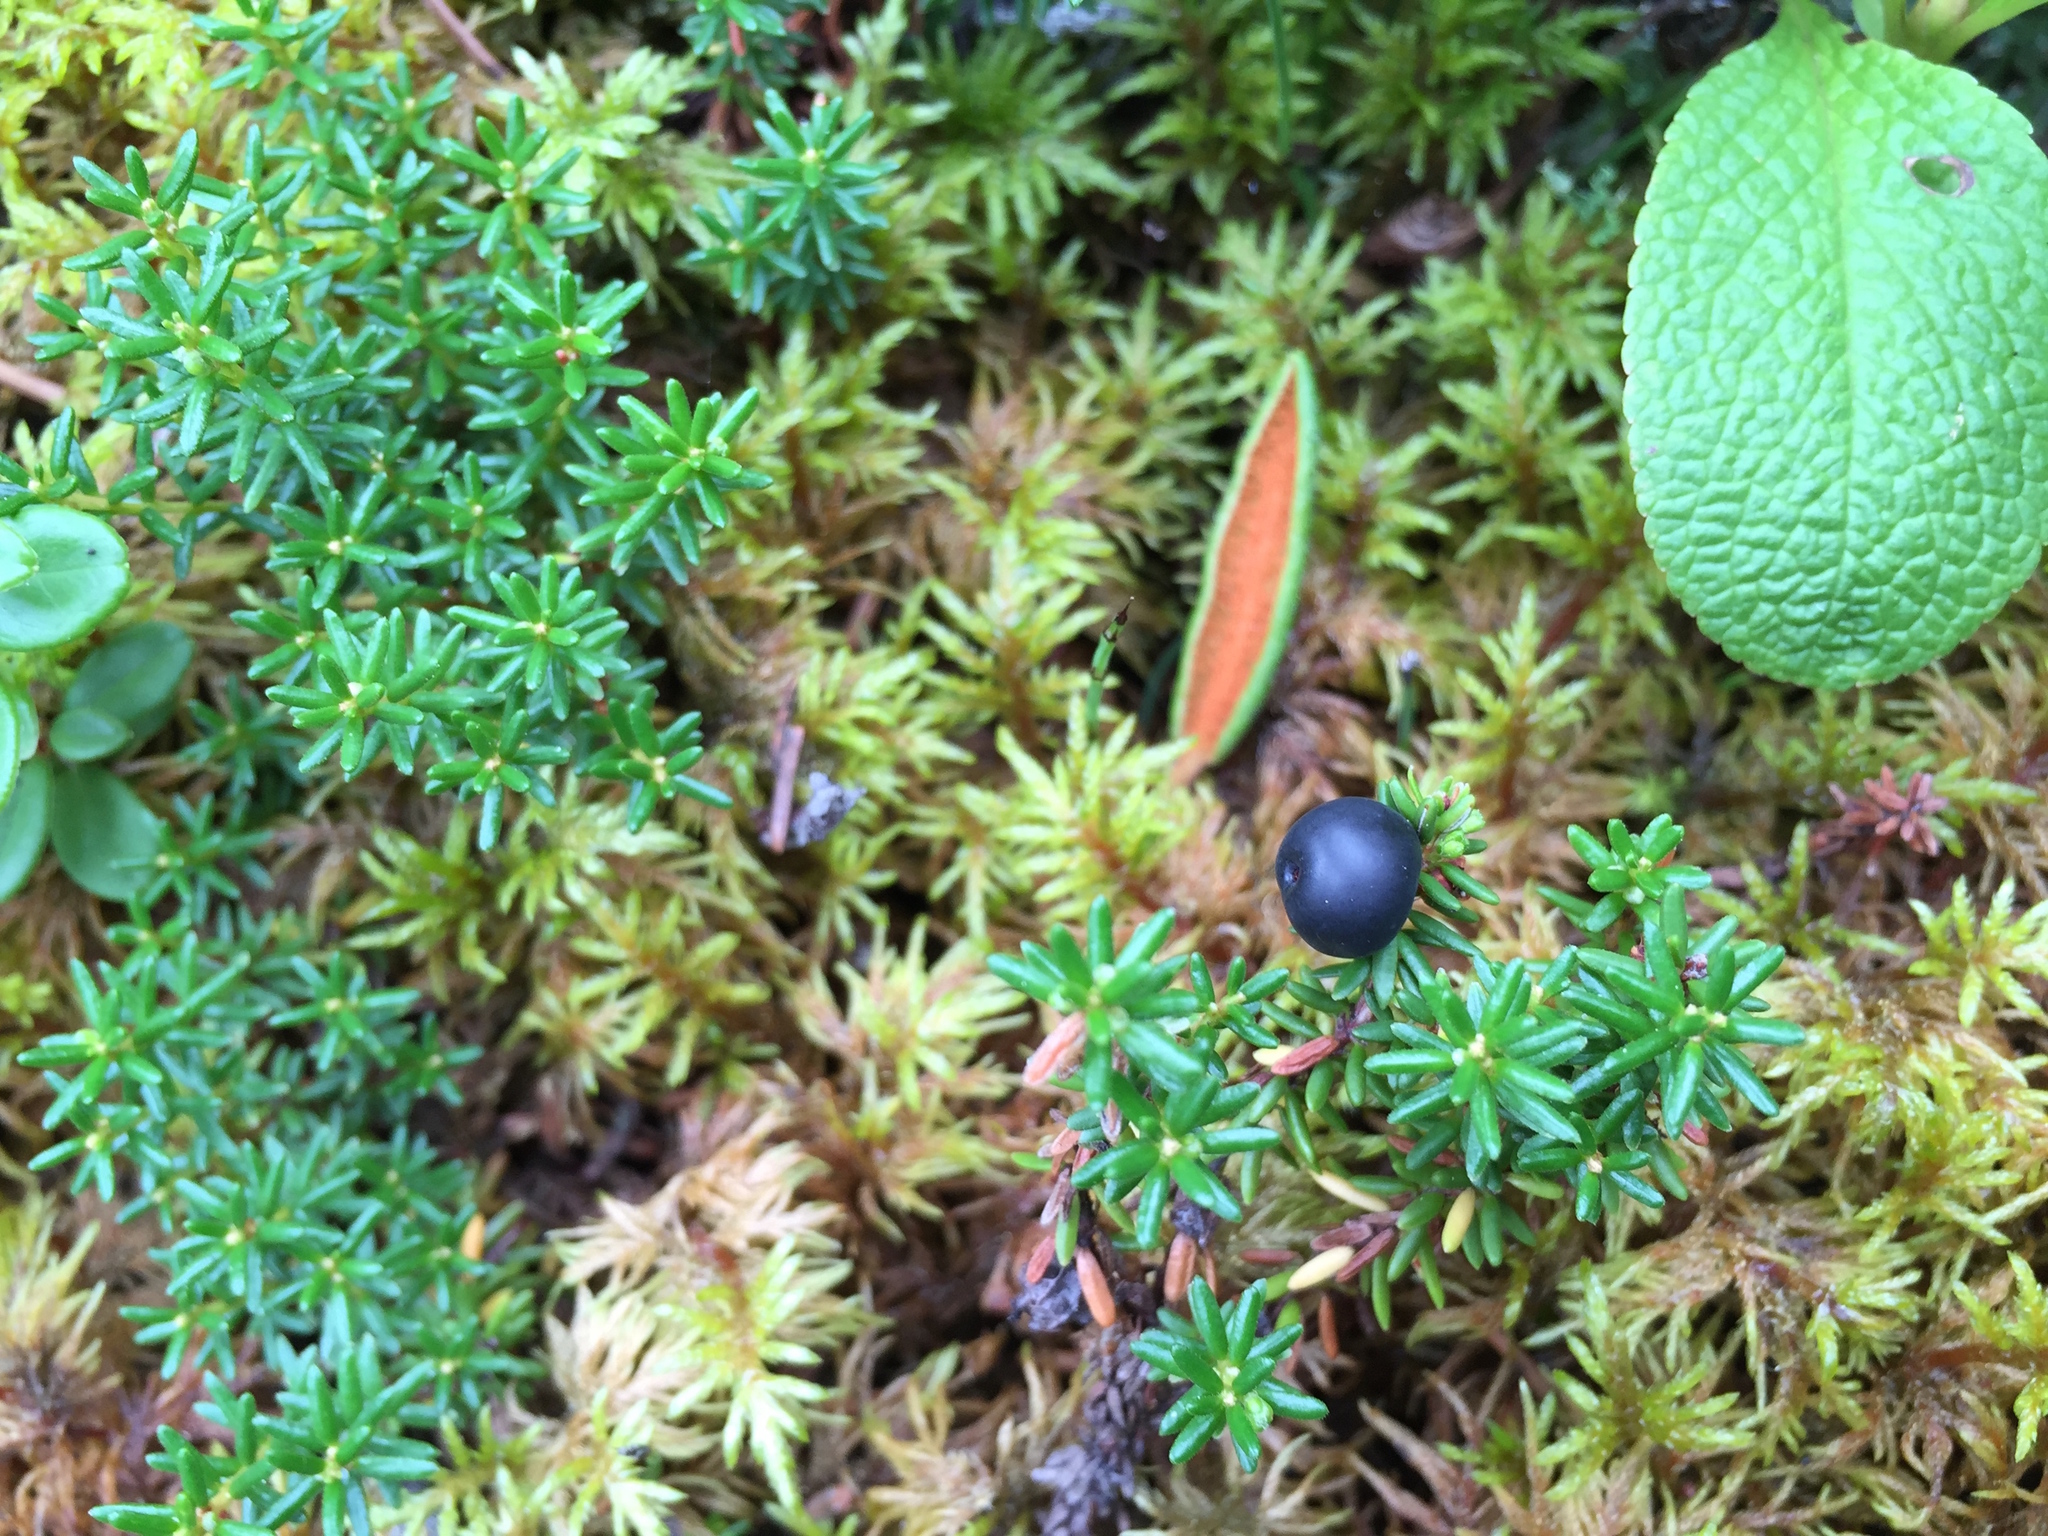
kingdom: Plantae
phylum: Tracheophyta
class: Magnoliopsida
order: Ericales
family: Ericaceae
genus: Empetrum
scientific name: Empetrum nigrum
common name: Black crowberry
